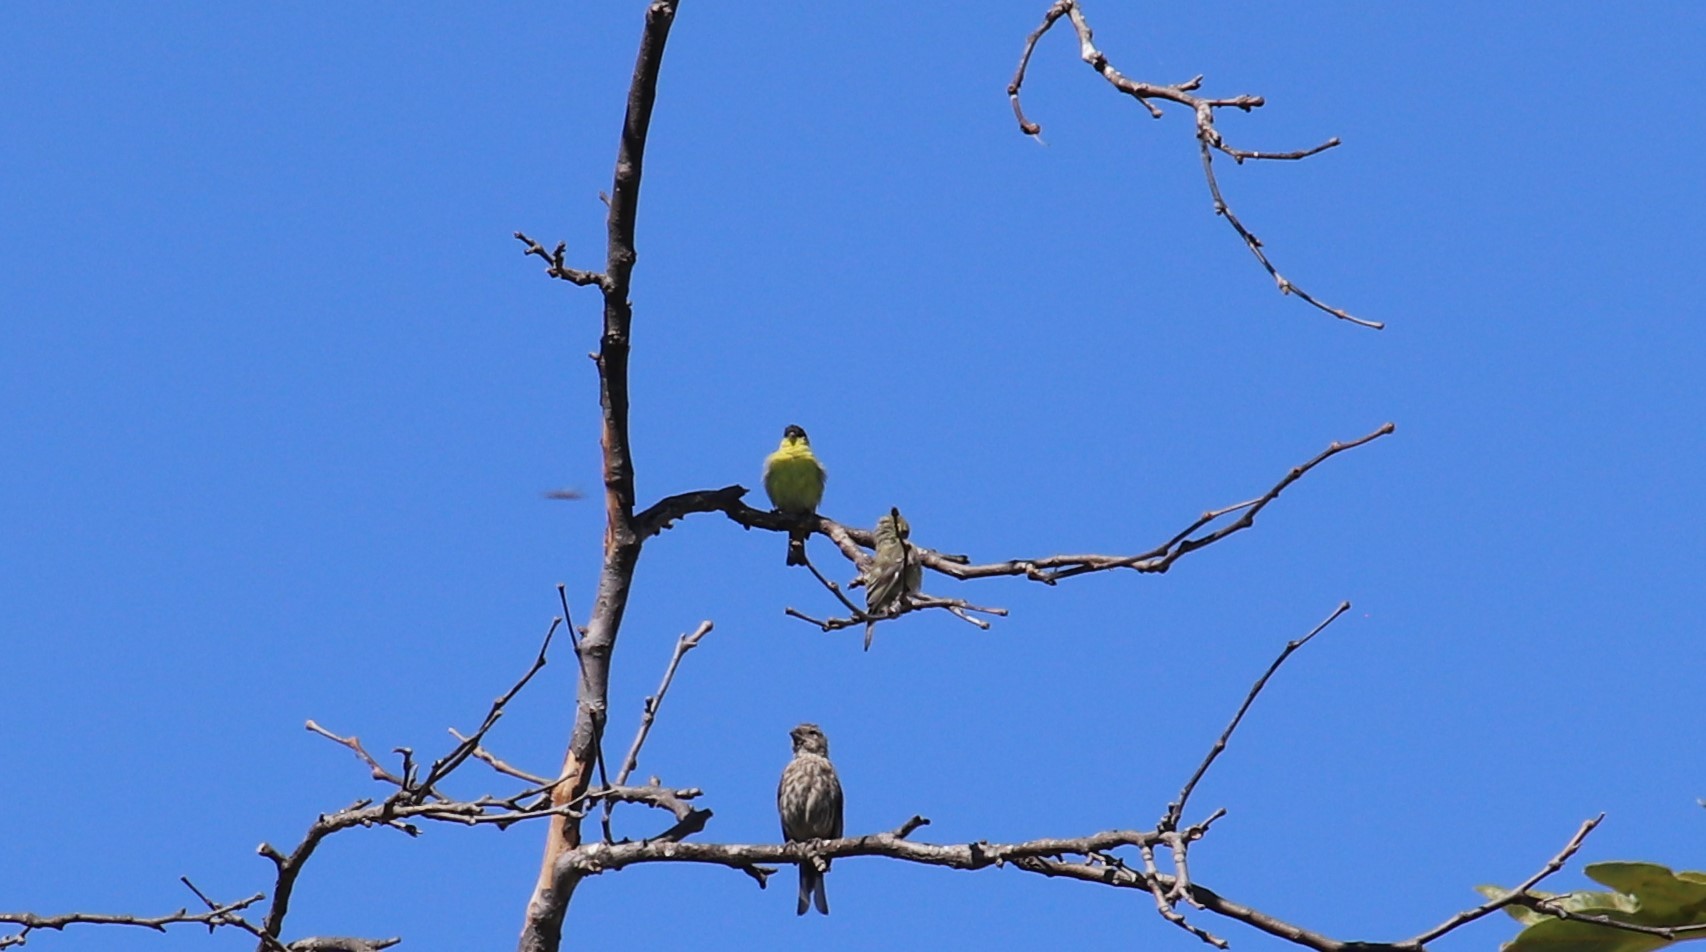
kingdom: Animalia
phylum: Chordata
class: Aves
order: Passeriformes
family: Fringillidae
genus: Spinus
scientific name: Spinus psaltria
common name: Lesser goldfinch
